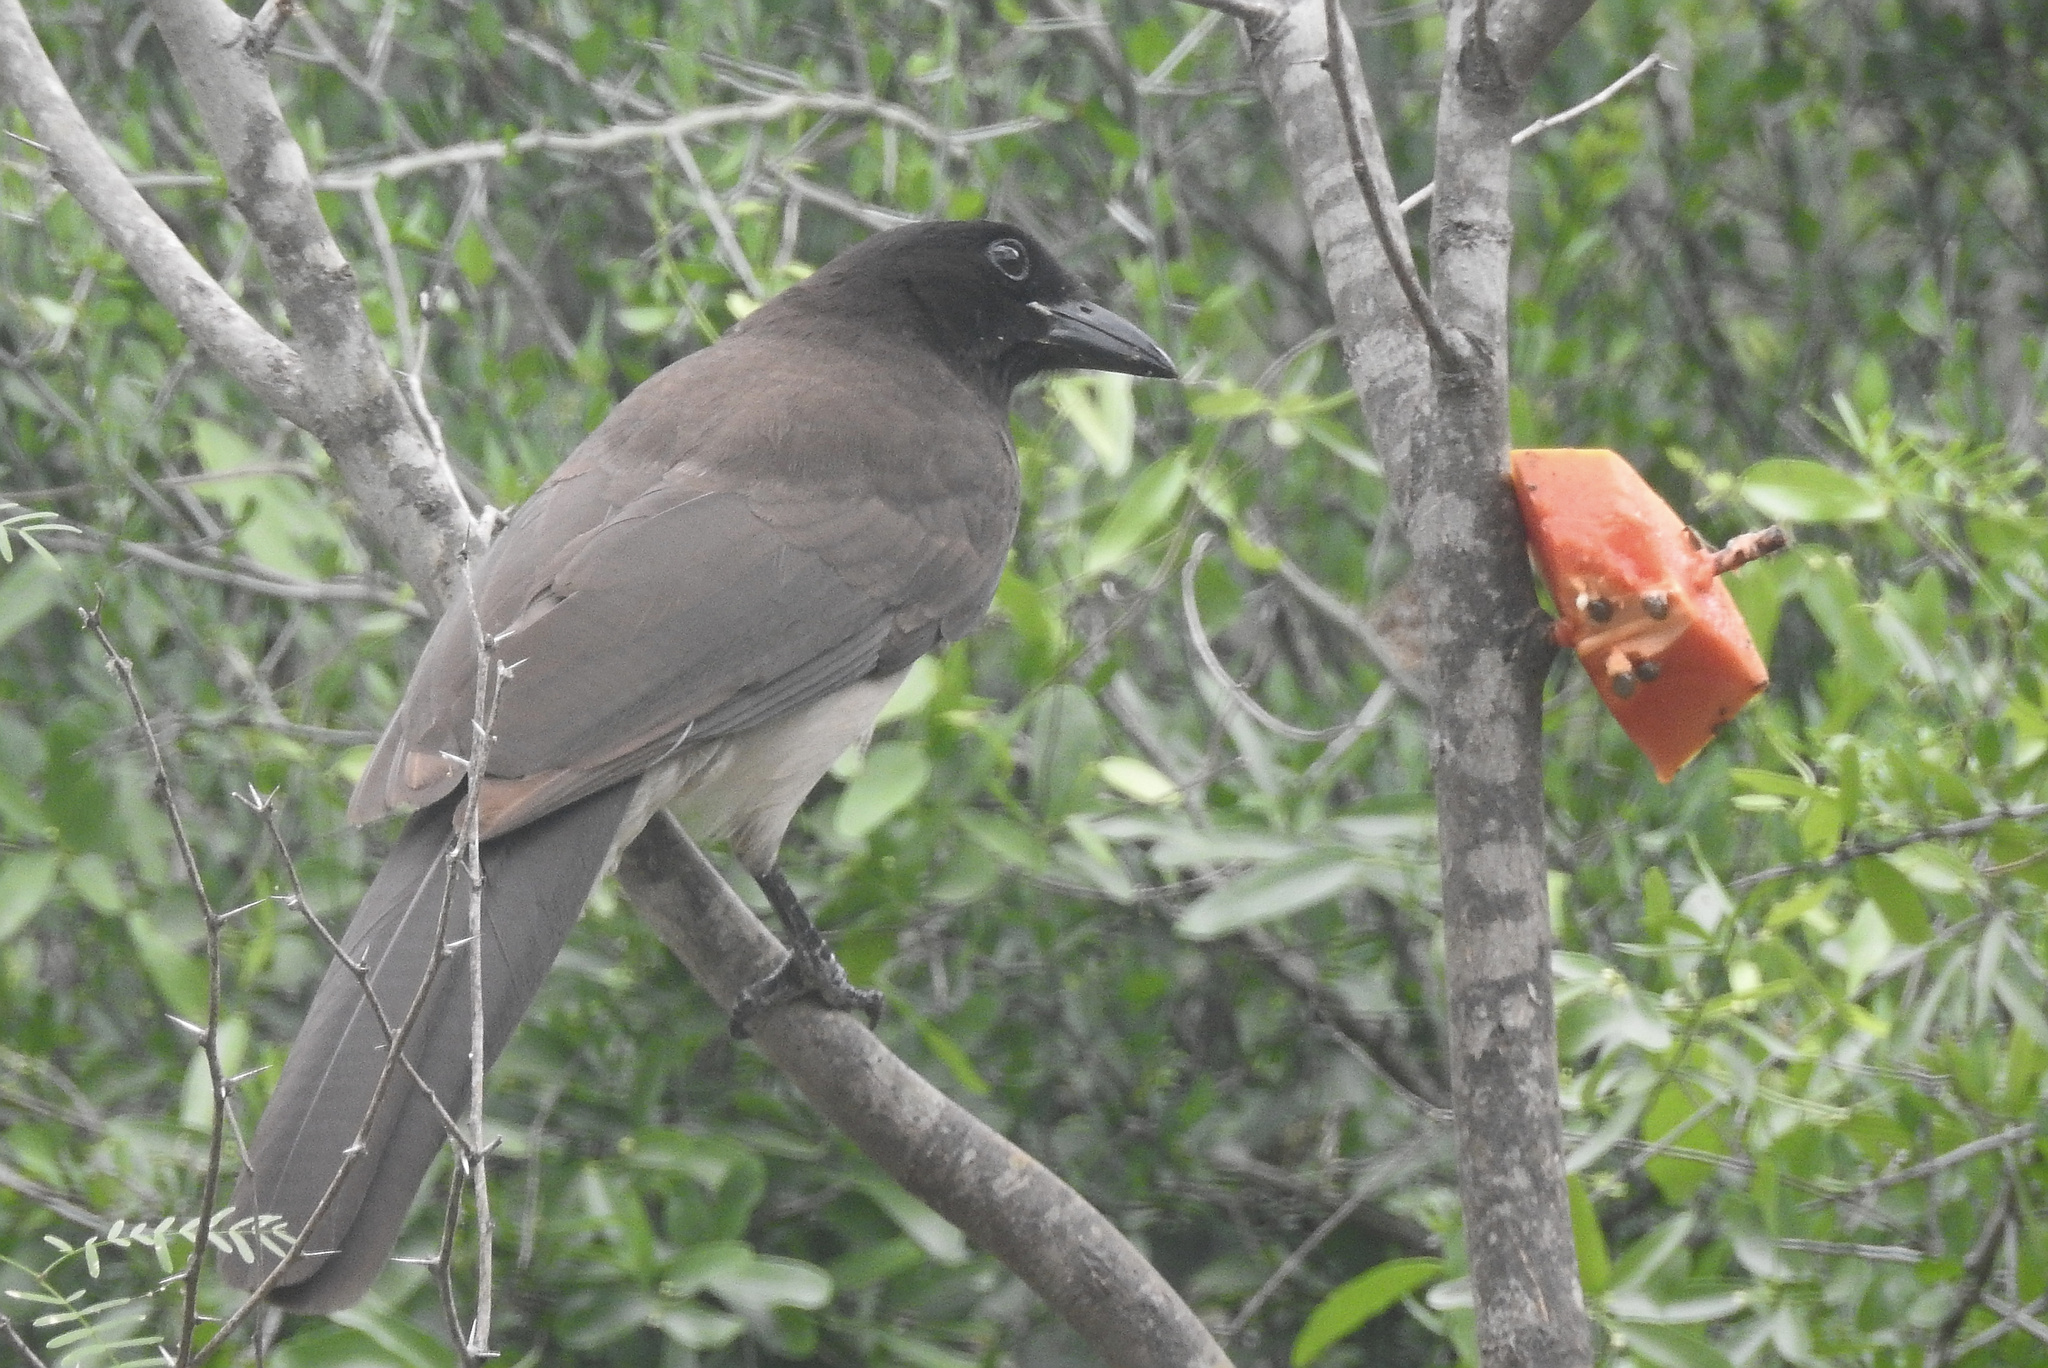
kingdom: Animalia
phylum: Chordata
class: Aves
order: Passeriformes
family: Corvidae
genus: Psilorhinus
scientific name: Psilorhinus morio
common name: Brown jay
